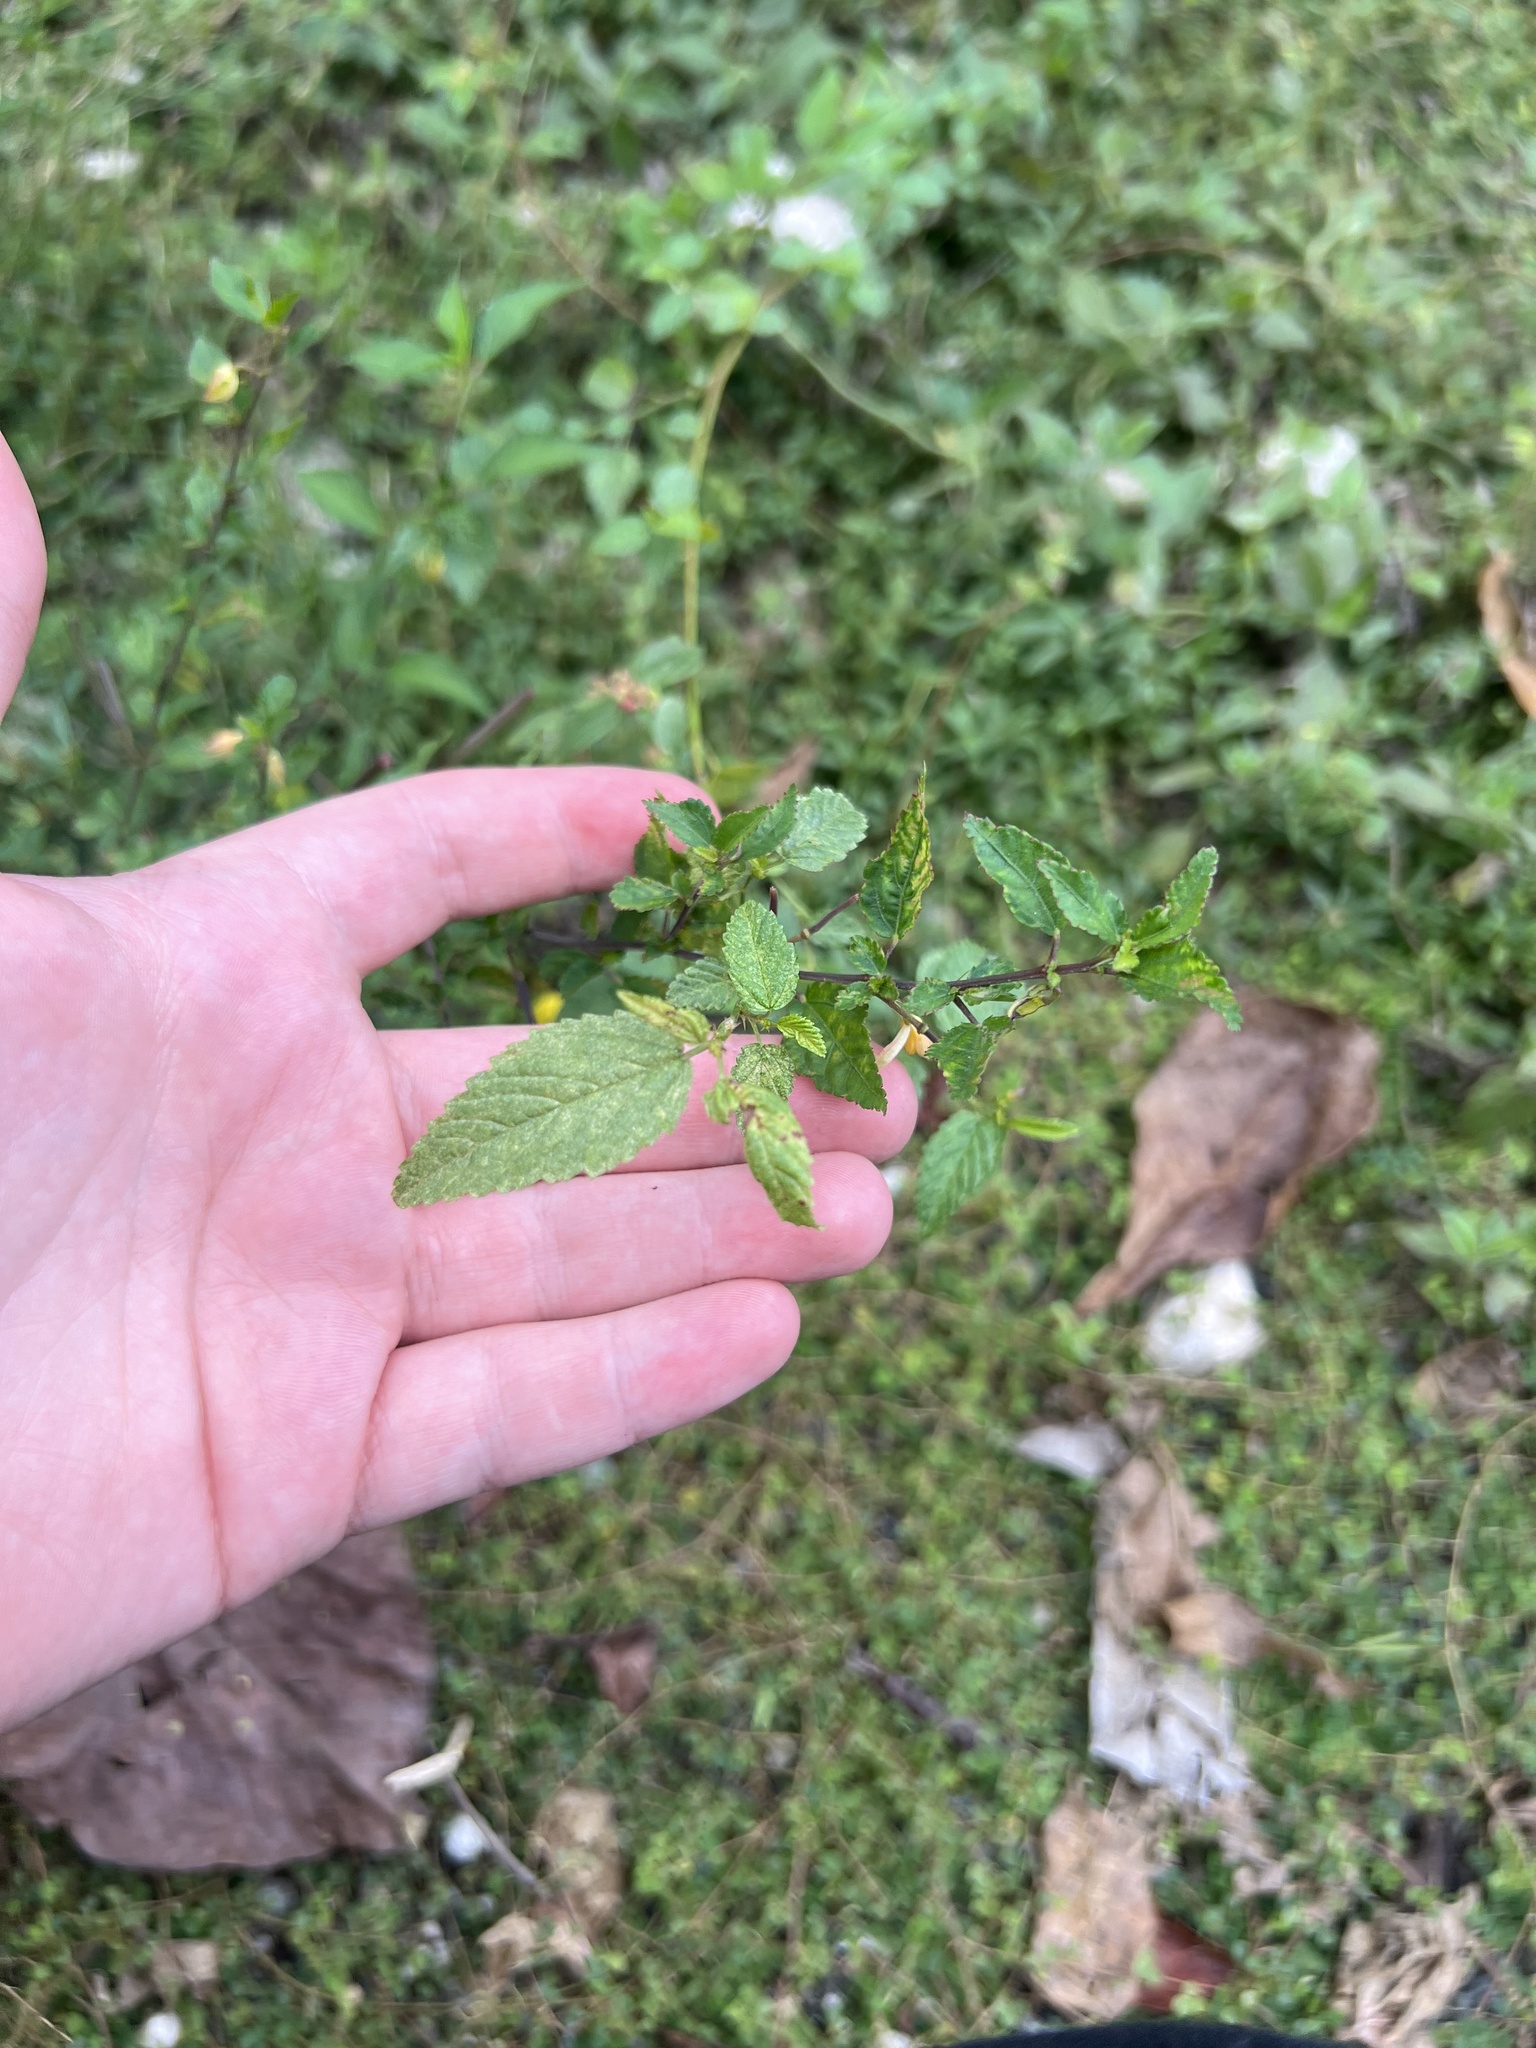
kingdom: Plantae
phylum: Tracheophyta
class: Magnoliopsida
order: Malvales
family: Malvaceae
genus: Corchorus
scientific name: Corchorus siliquosus
